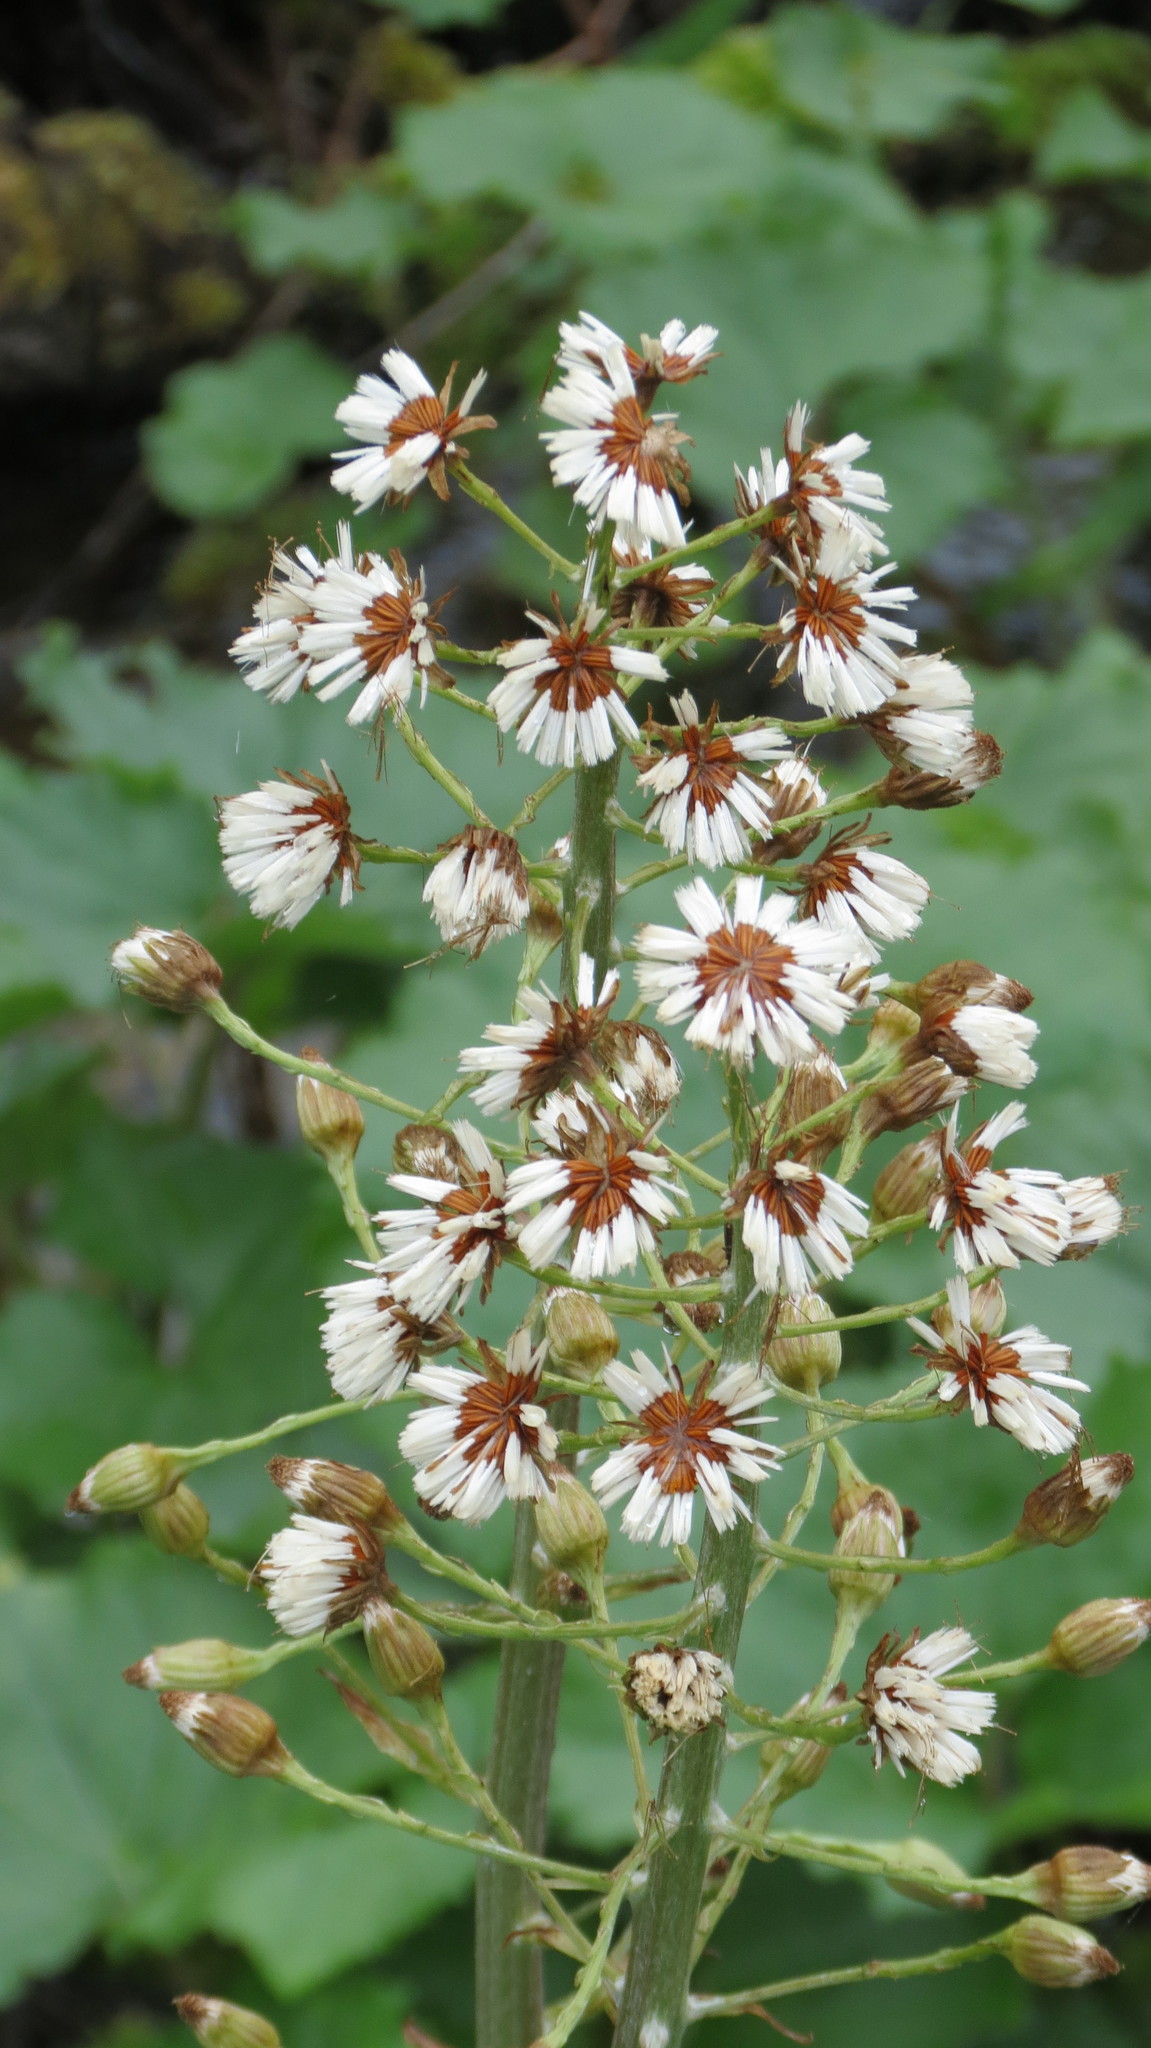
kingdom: Plantae
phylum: Tracheophyta
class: Magnoliopsida
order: Asterales
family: Asteraceae
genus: Petasites
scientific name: Petasites kablikianus
